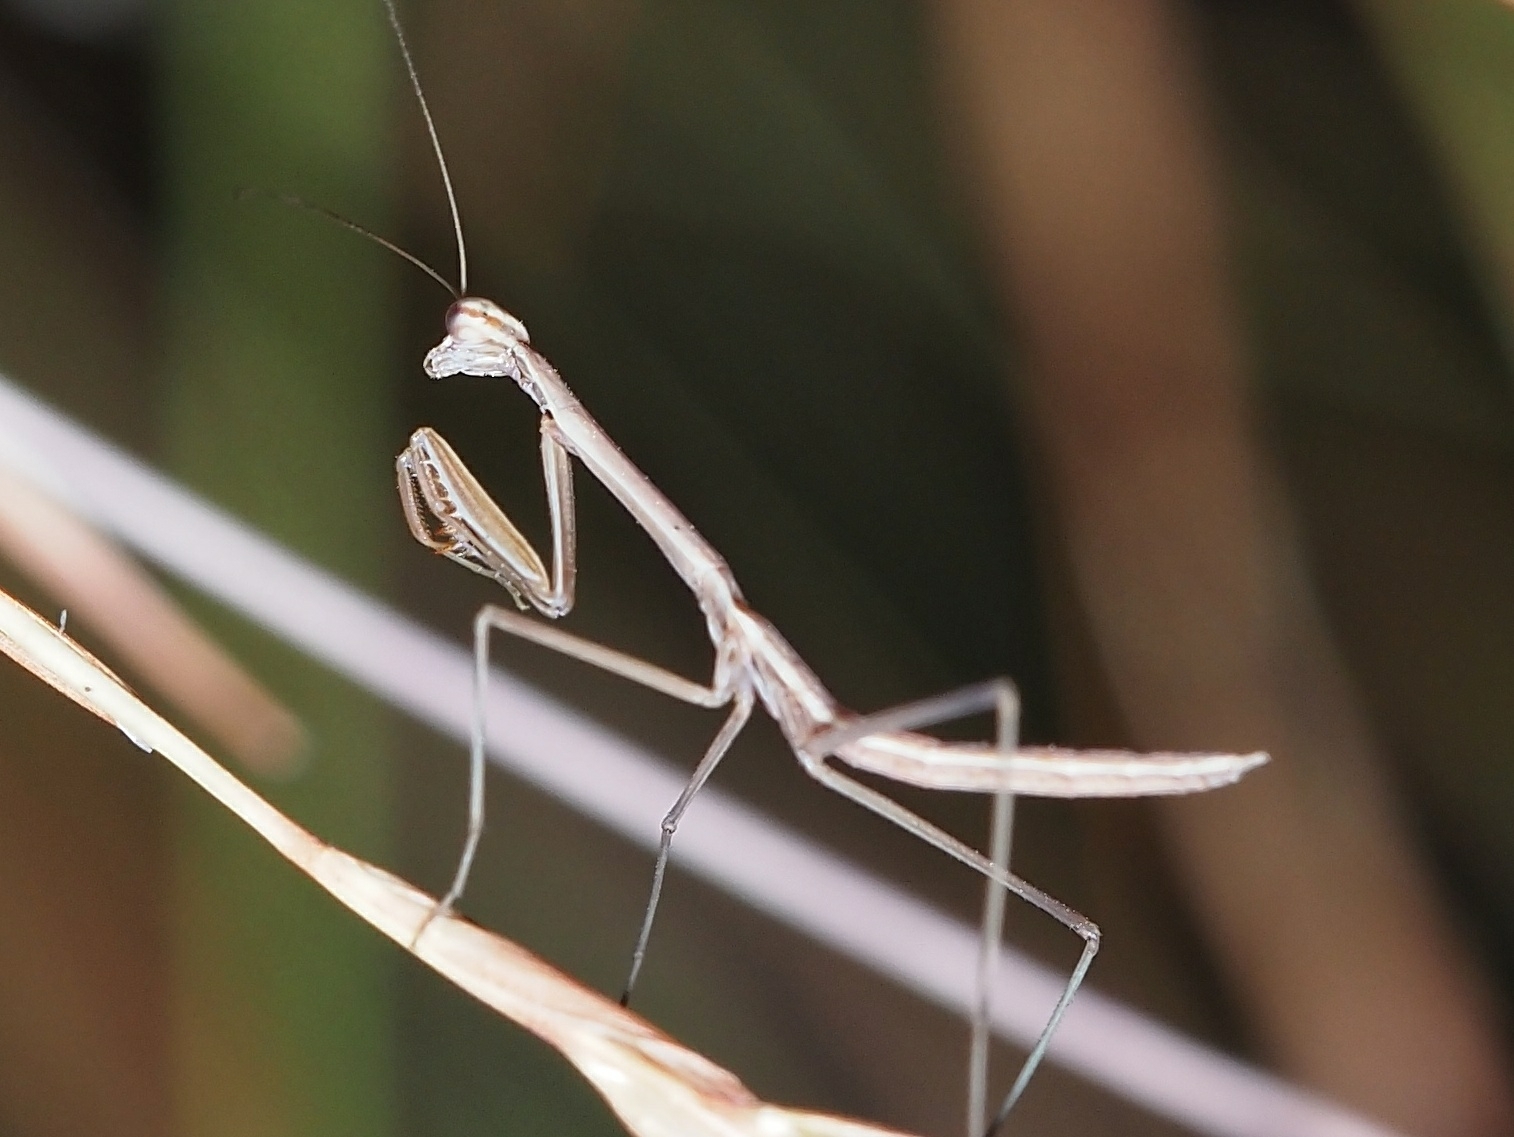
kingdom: Animalia
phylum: Arthropoda
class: Insecta
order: Mantodea
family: Mantidae
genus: Archimantis
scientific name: Archimantis latistyla
